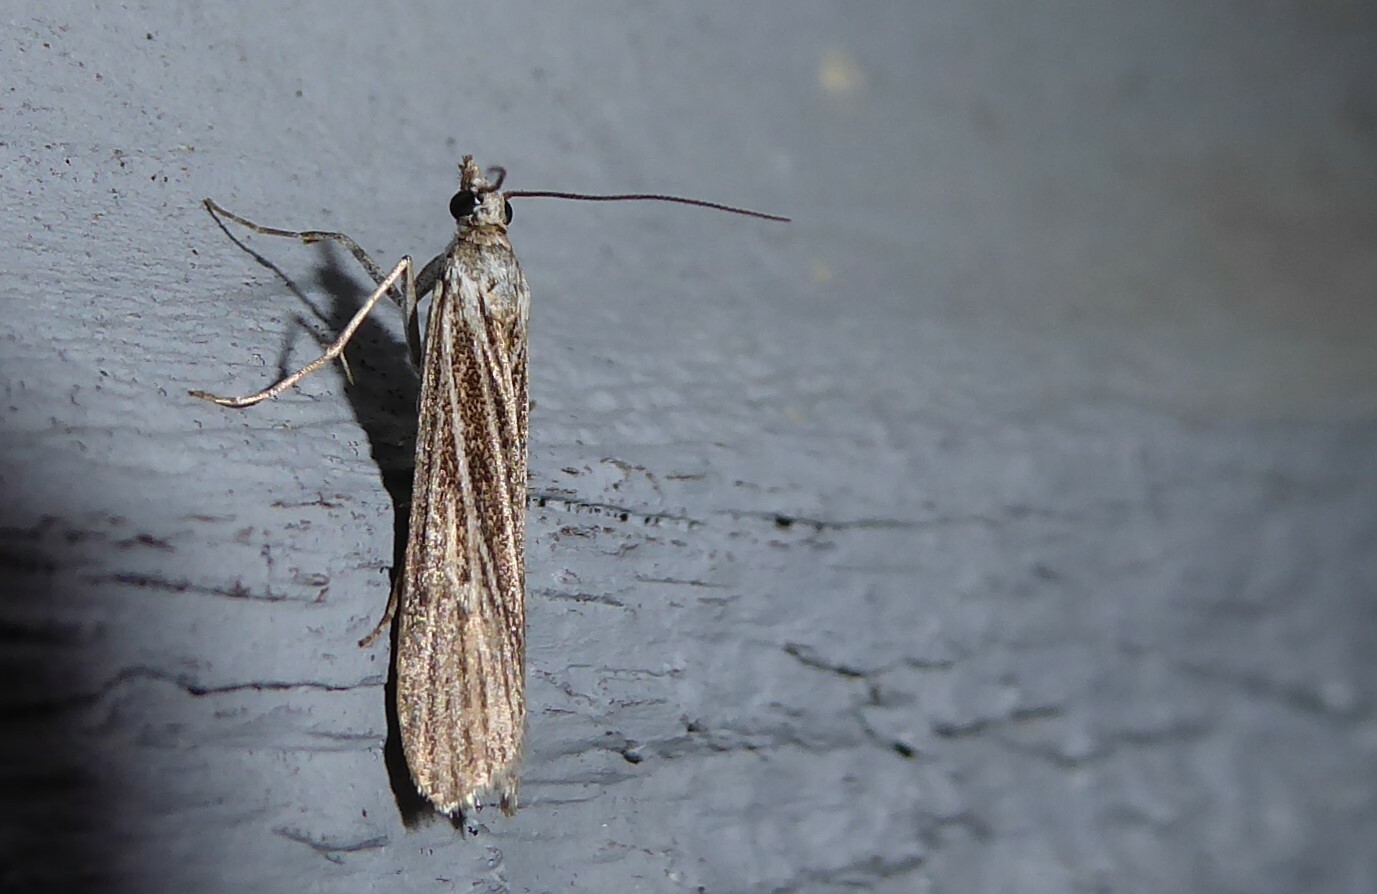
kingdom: Animalia
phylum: Arthropoda
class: Insecta
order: Lepidoptera
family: Crambidae
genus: Eudonia
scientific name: Eudonia atmogramma
